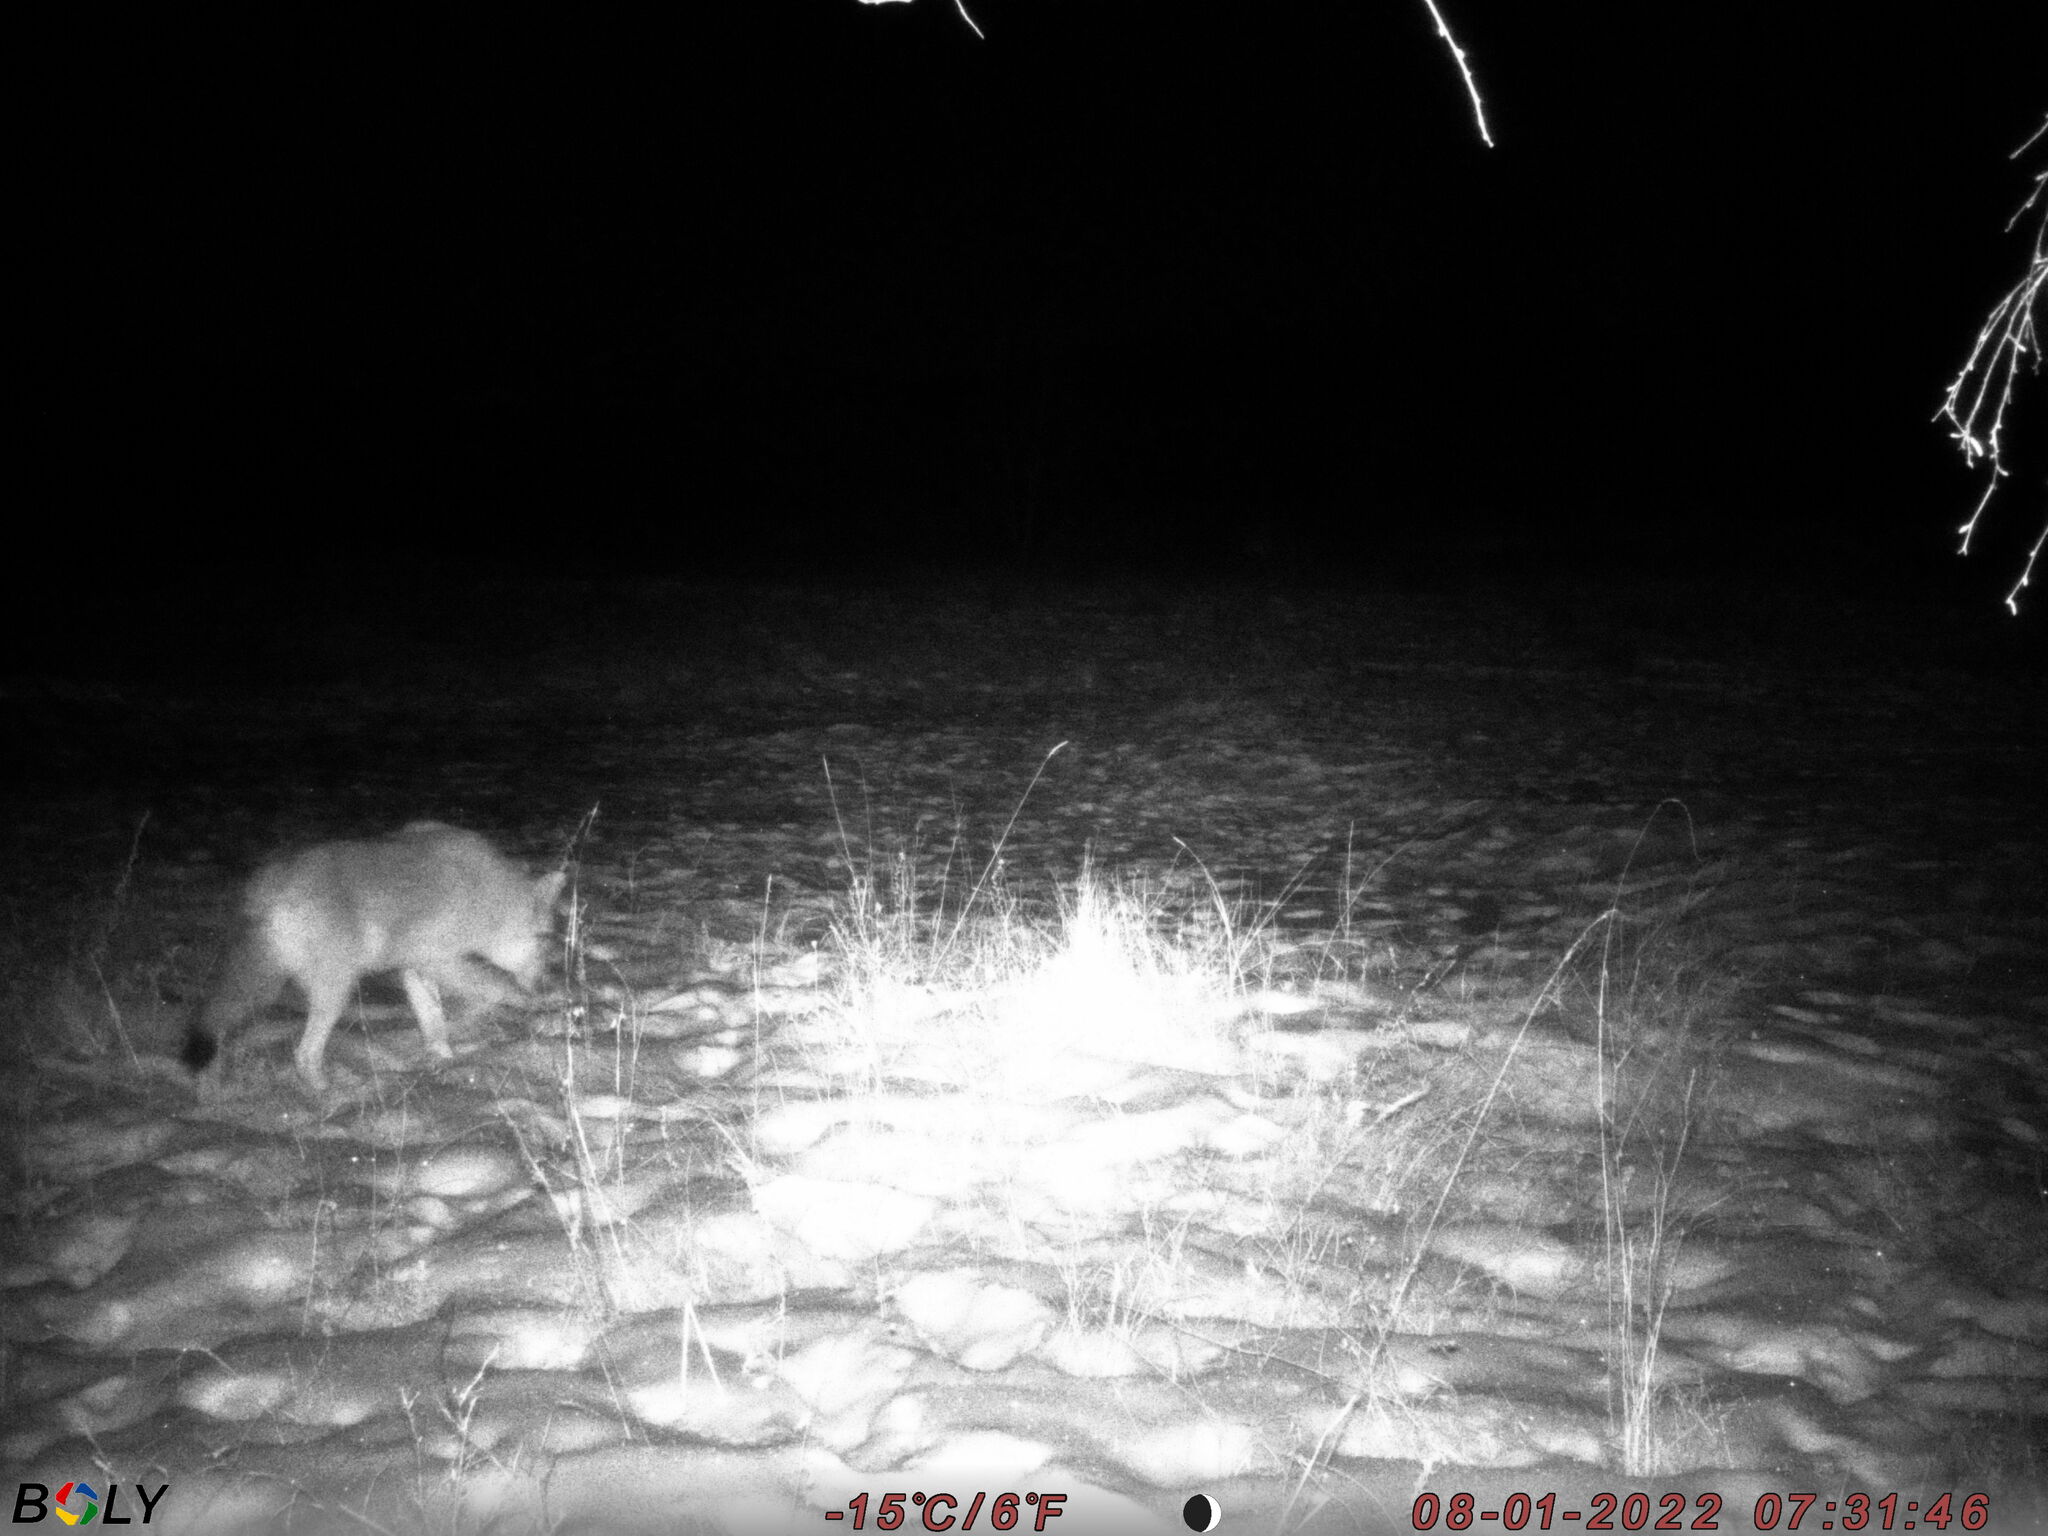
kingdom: Animalia
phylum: Chordata
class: Mammalia
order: Carnivora
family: Canidae
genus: Canis
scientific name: Canis lupus
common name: Gray wolf
